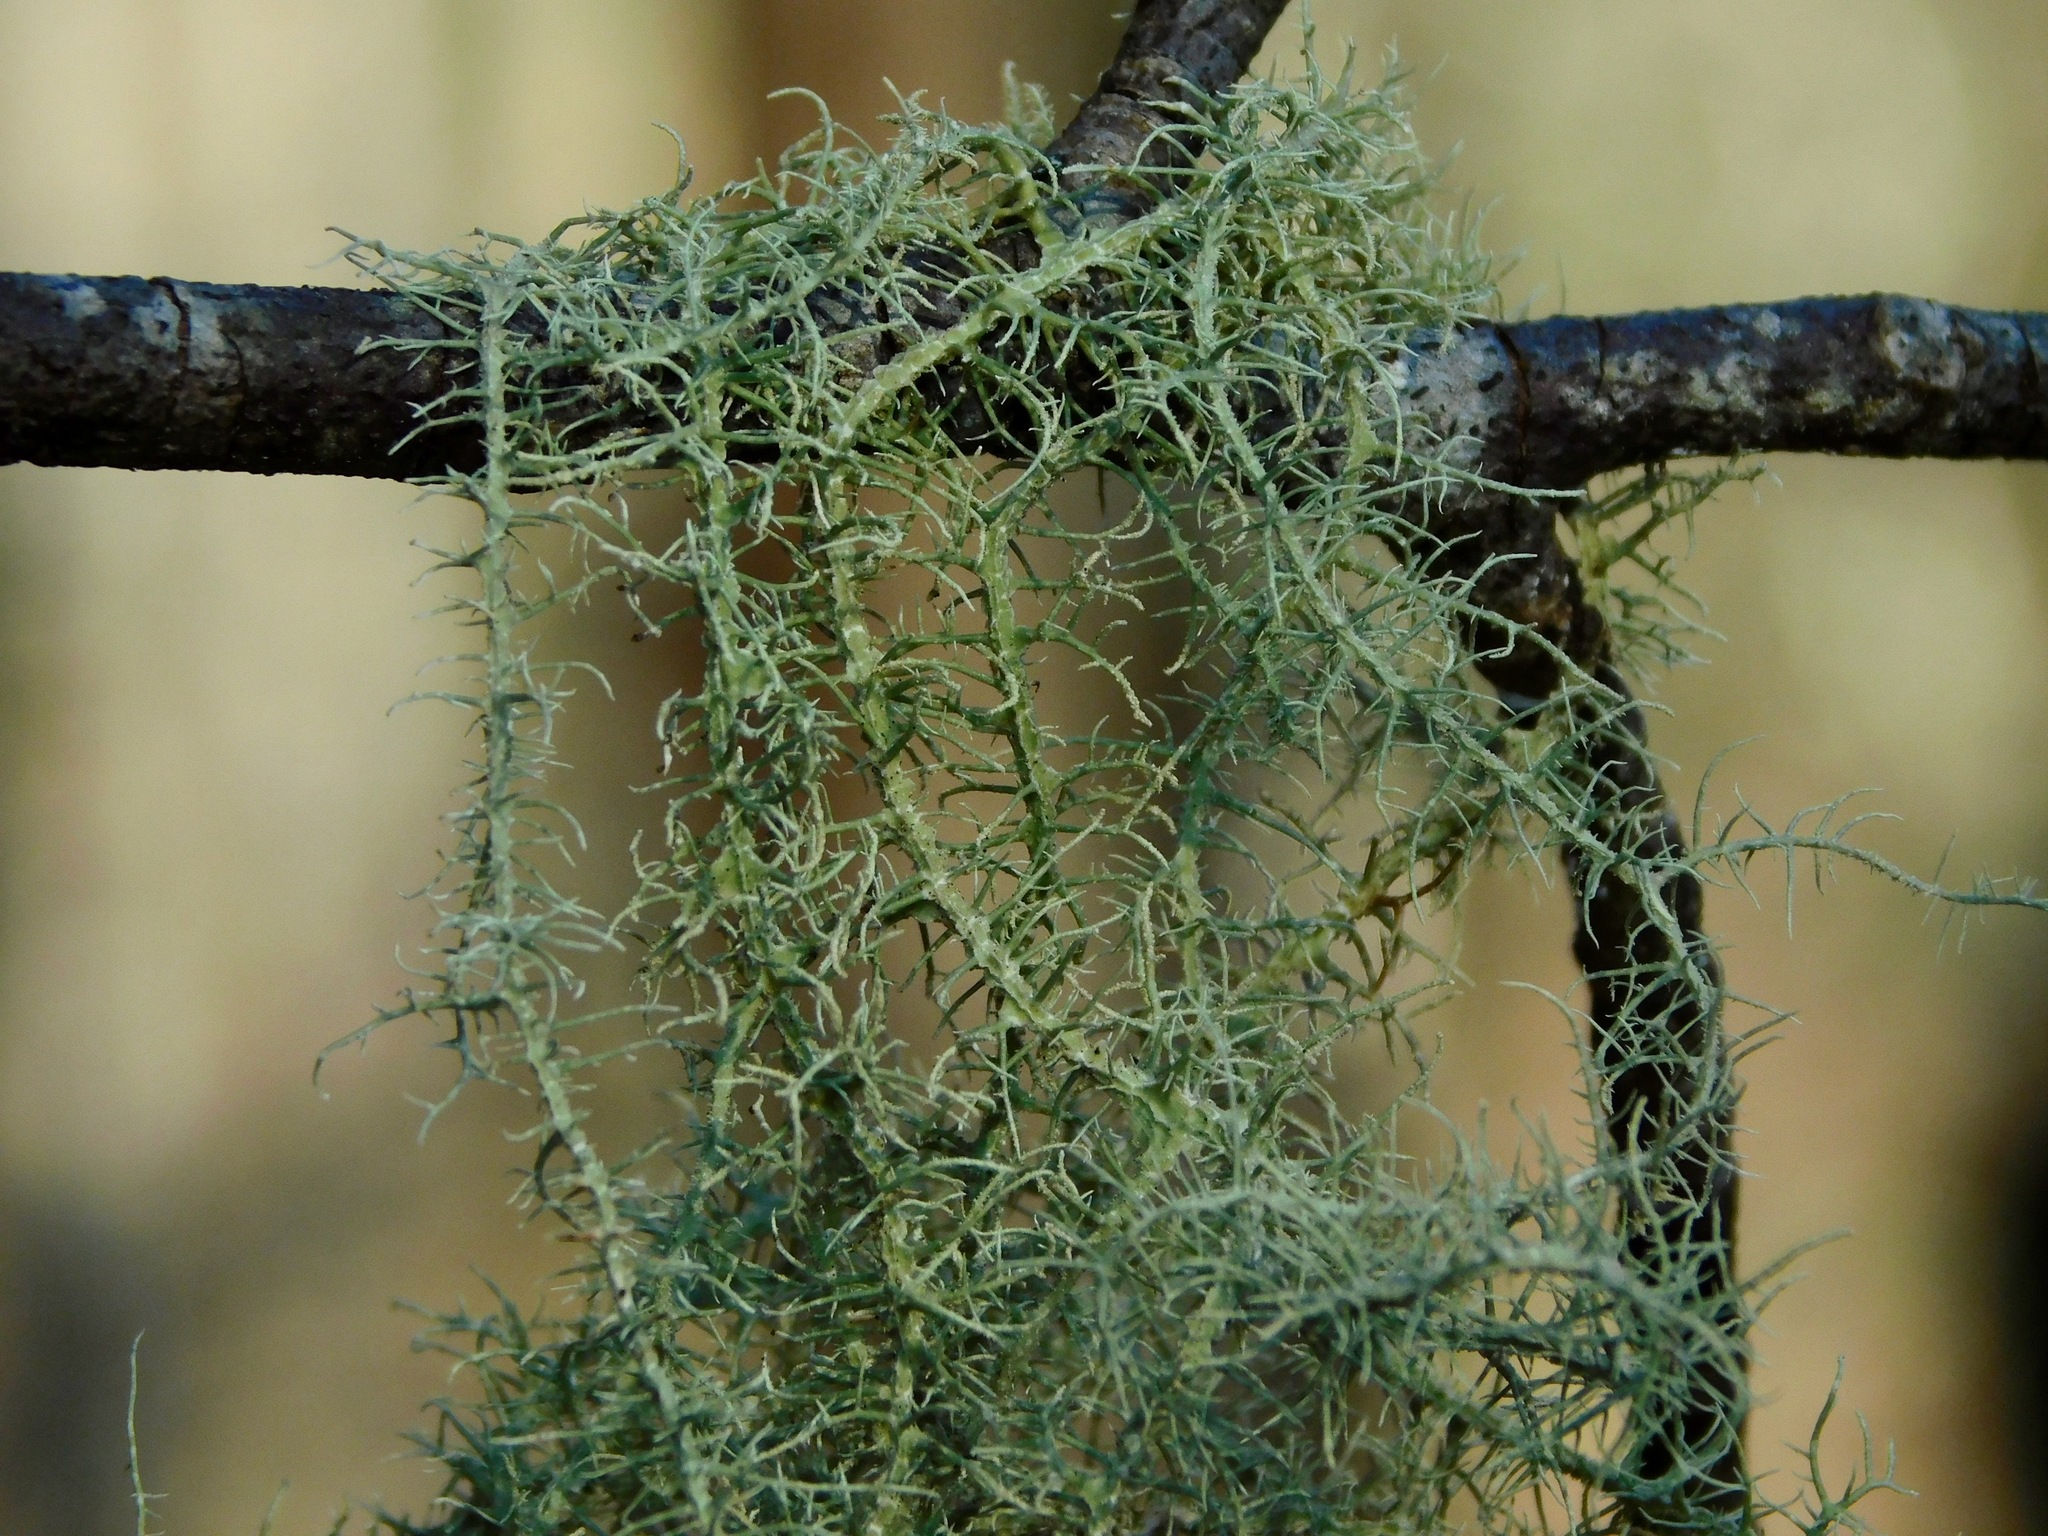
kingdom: Fungi
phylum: Ascomycota
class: Lecanoromycetes
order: Lecanorales
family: Parmeliaceae
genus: Usnea
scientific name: Usnea angulata
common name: Old-man’s beard lichen
